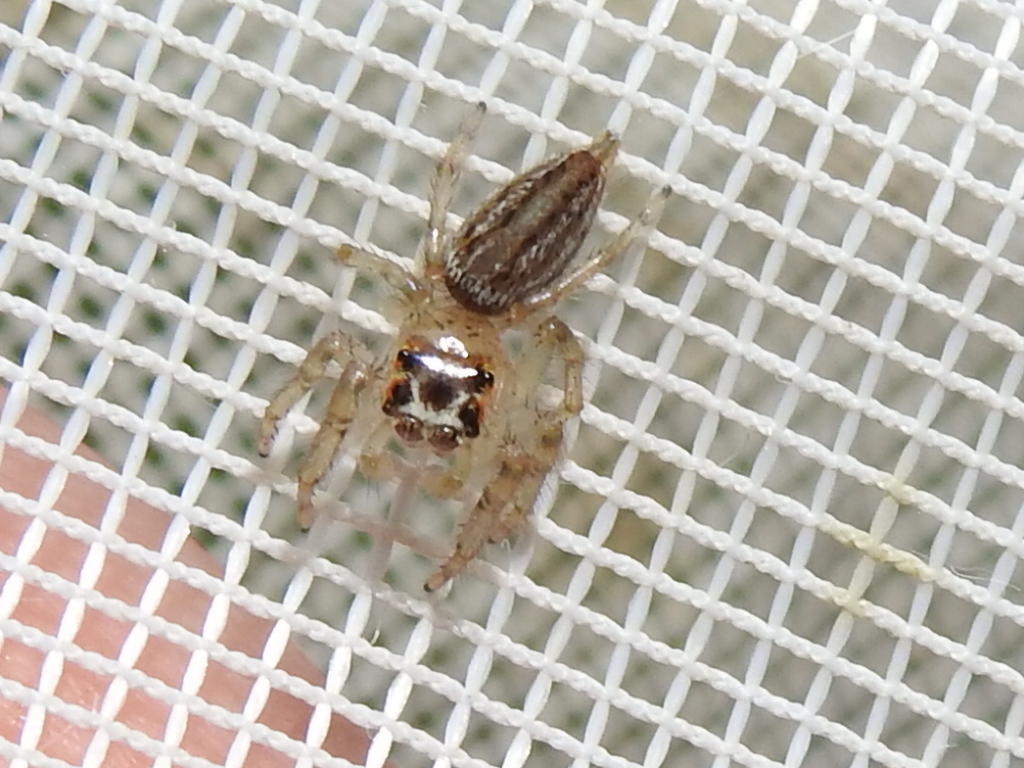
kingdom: Animalia
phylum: Arthropoda
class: Arachnida
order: Araneae
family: Salticidae
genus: Colonus
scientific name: Colonus sylvanus
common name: Jumping spiders
